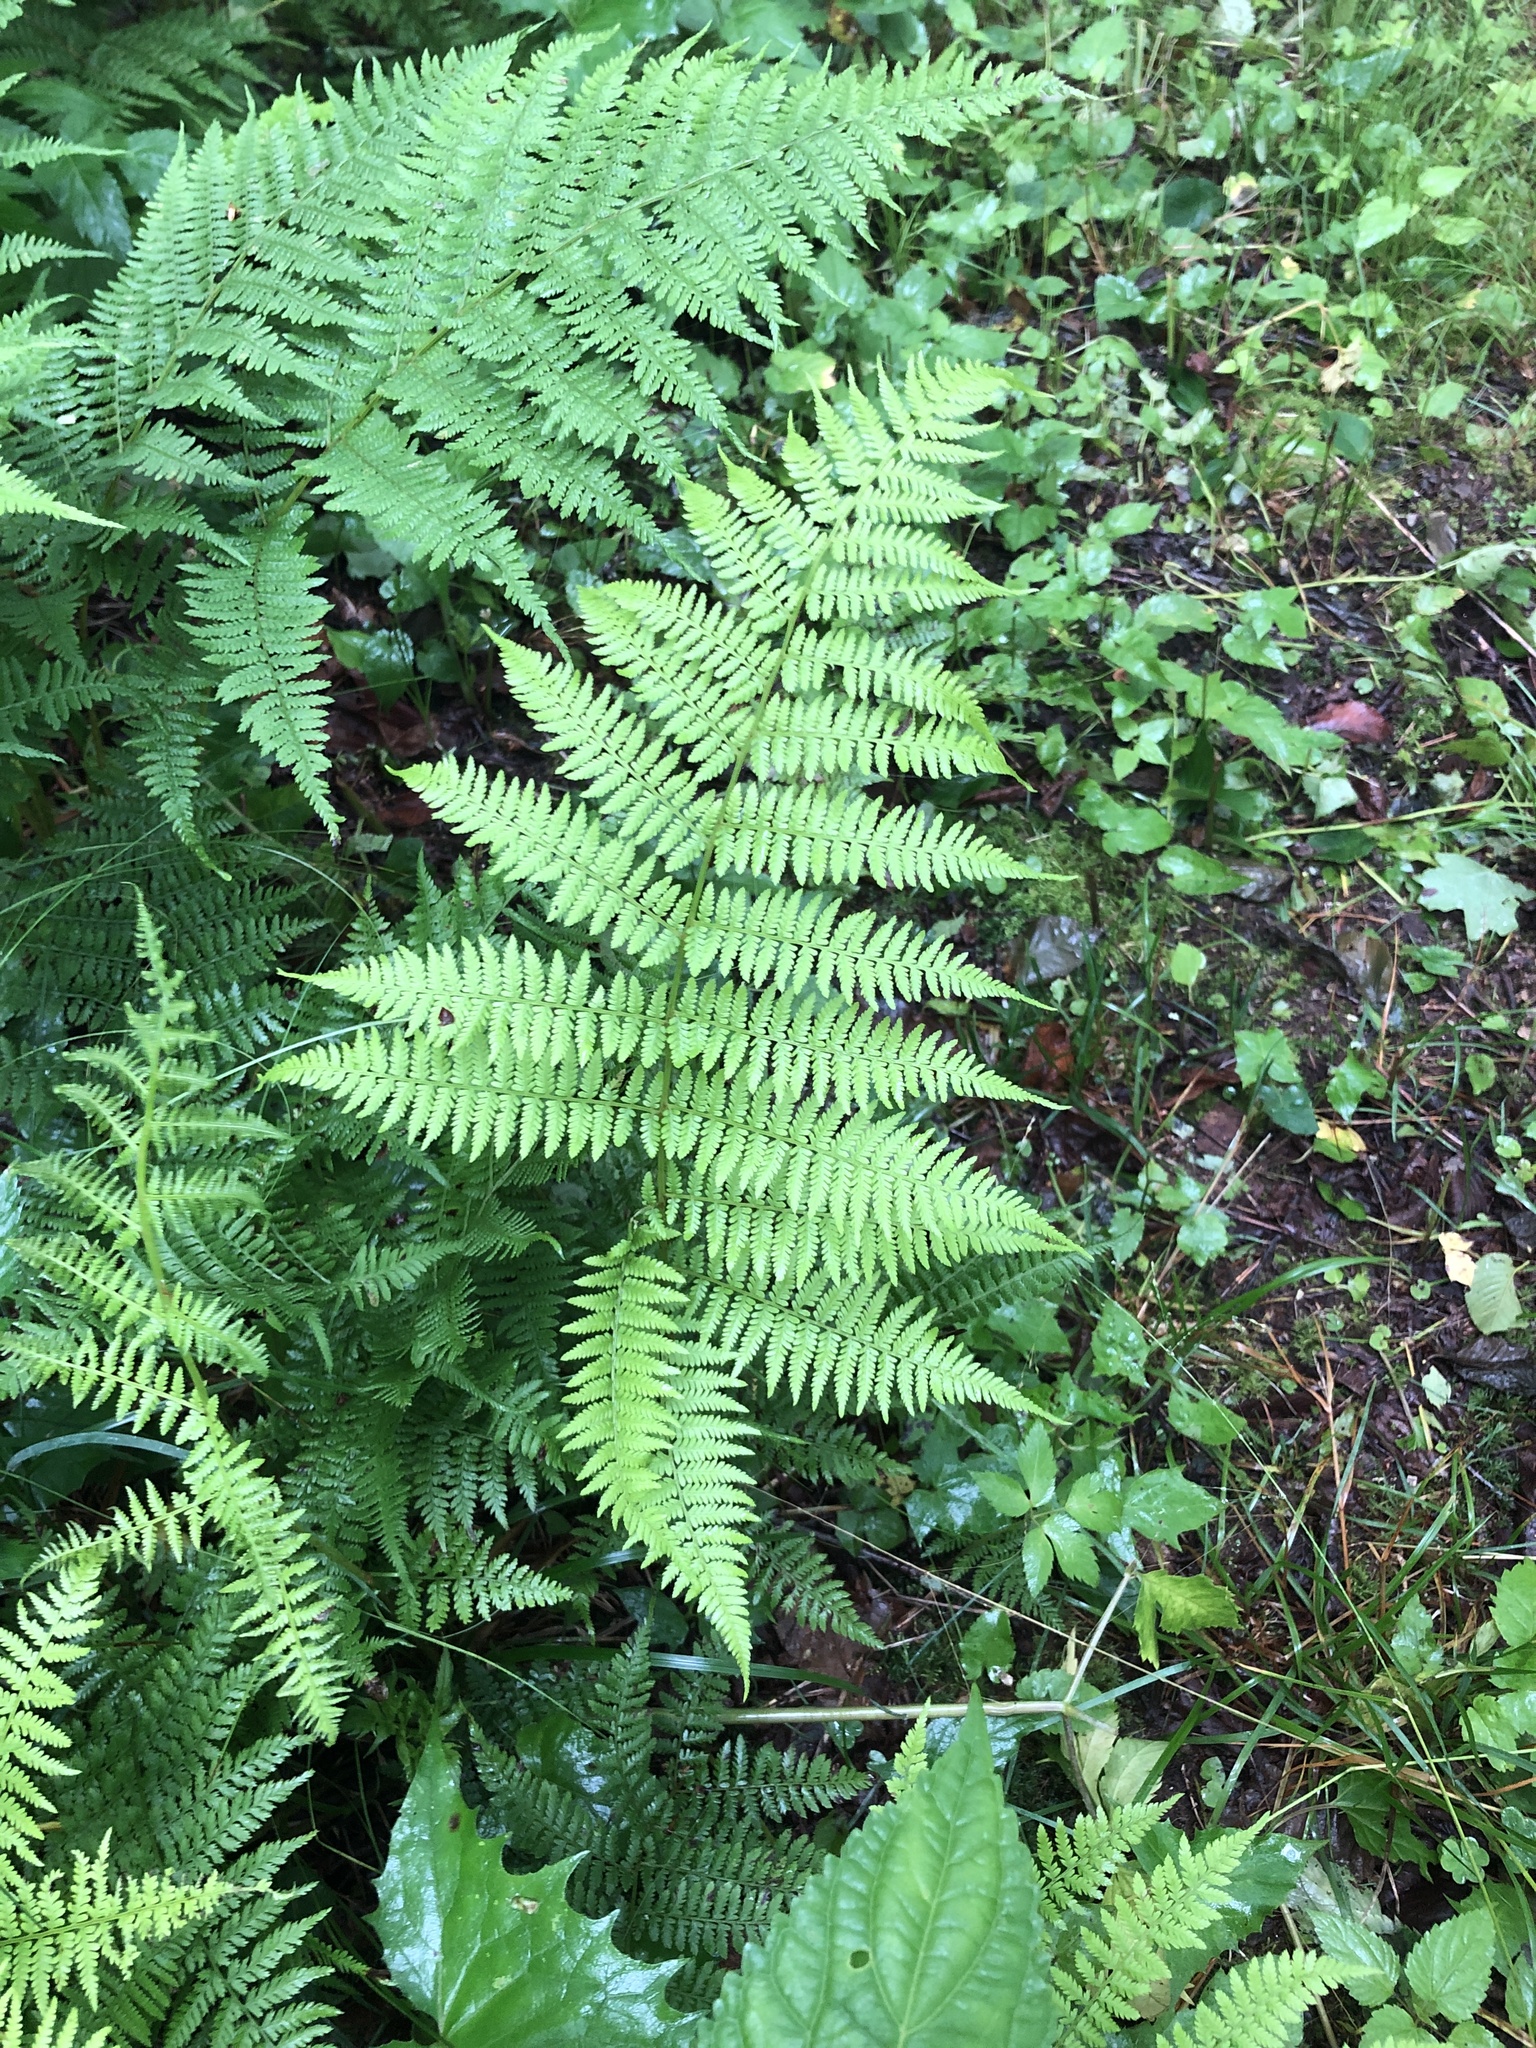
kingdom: Plantae
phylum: Tracheophyta
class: Polypodiopsida
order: Polypodiales
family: Athyriaceae
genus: Athyrium
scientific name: Athyrium asplenioides
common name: Southern lady fern
